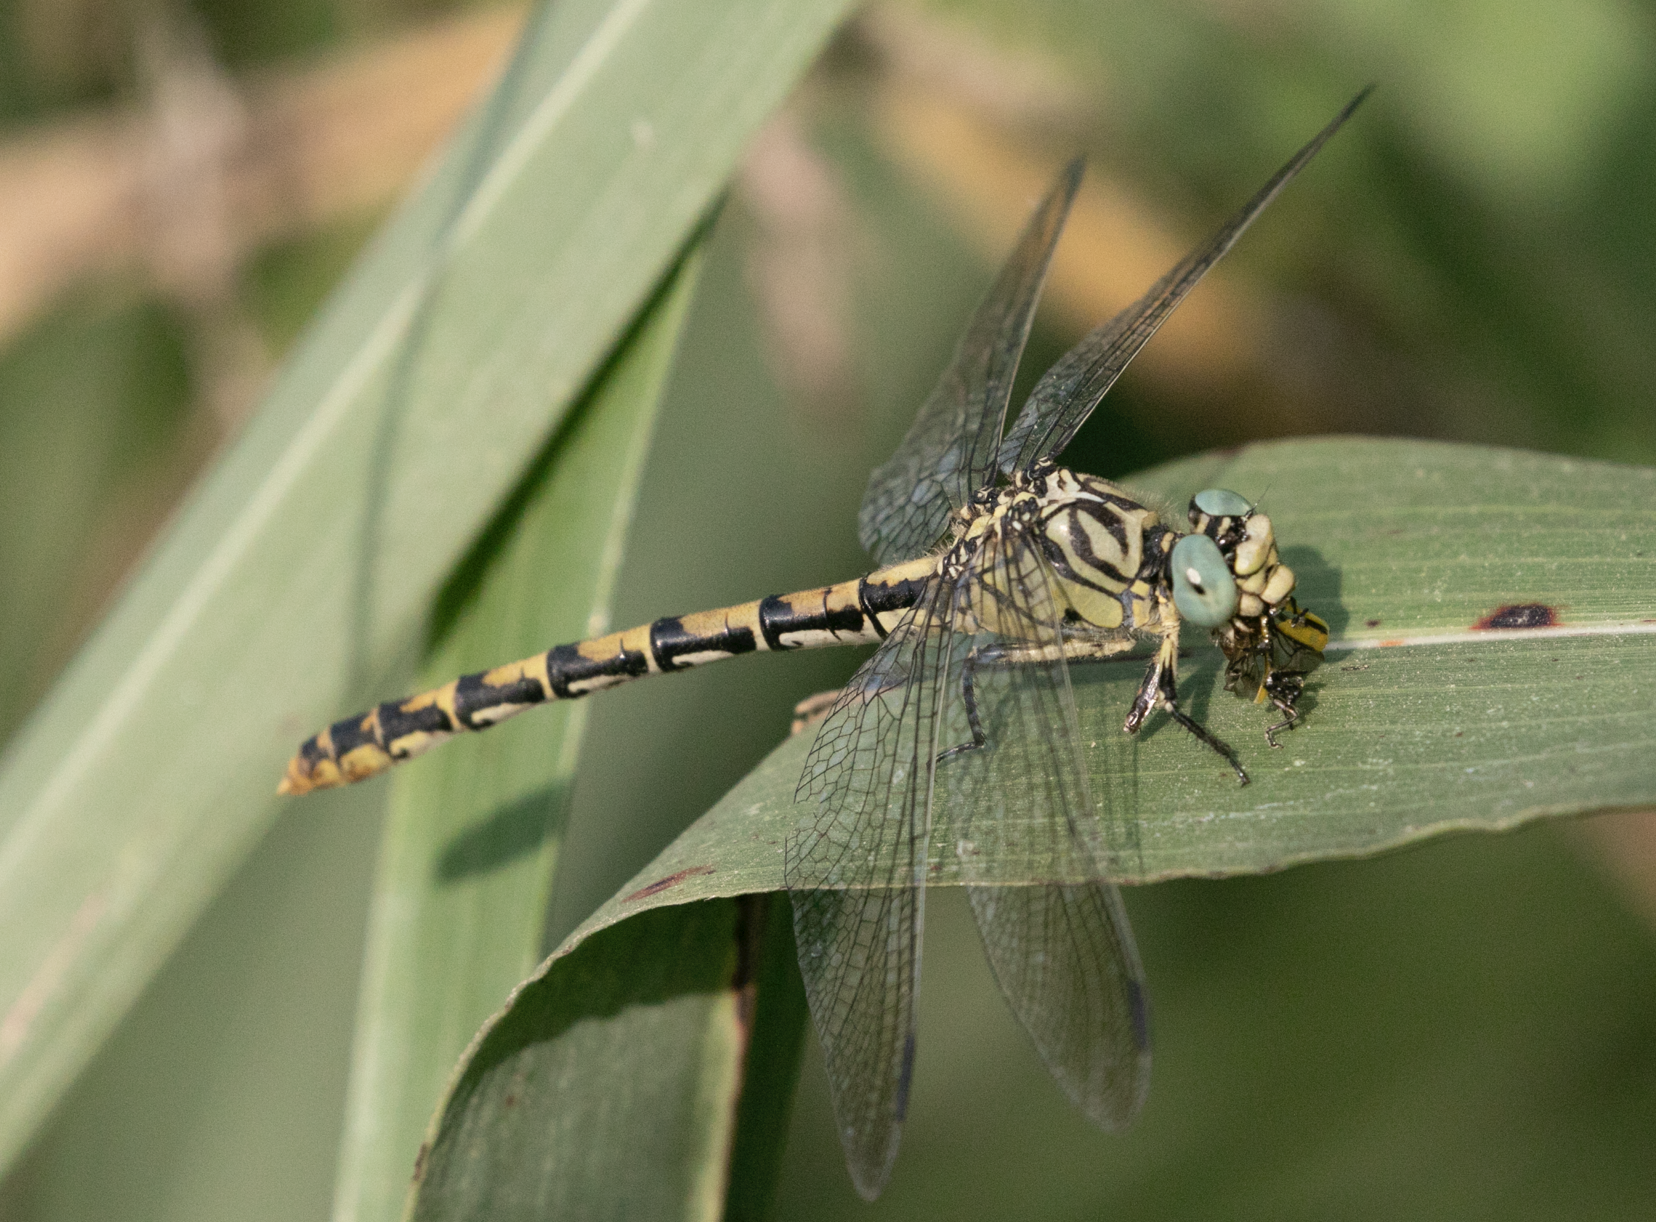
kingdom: Animalia
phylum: Arthropoda
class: Insecta
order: Odonata
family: Gomphidae
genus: Onychogomphus
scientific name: Onychogomphus forcipatus
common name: Small pincertail
